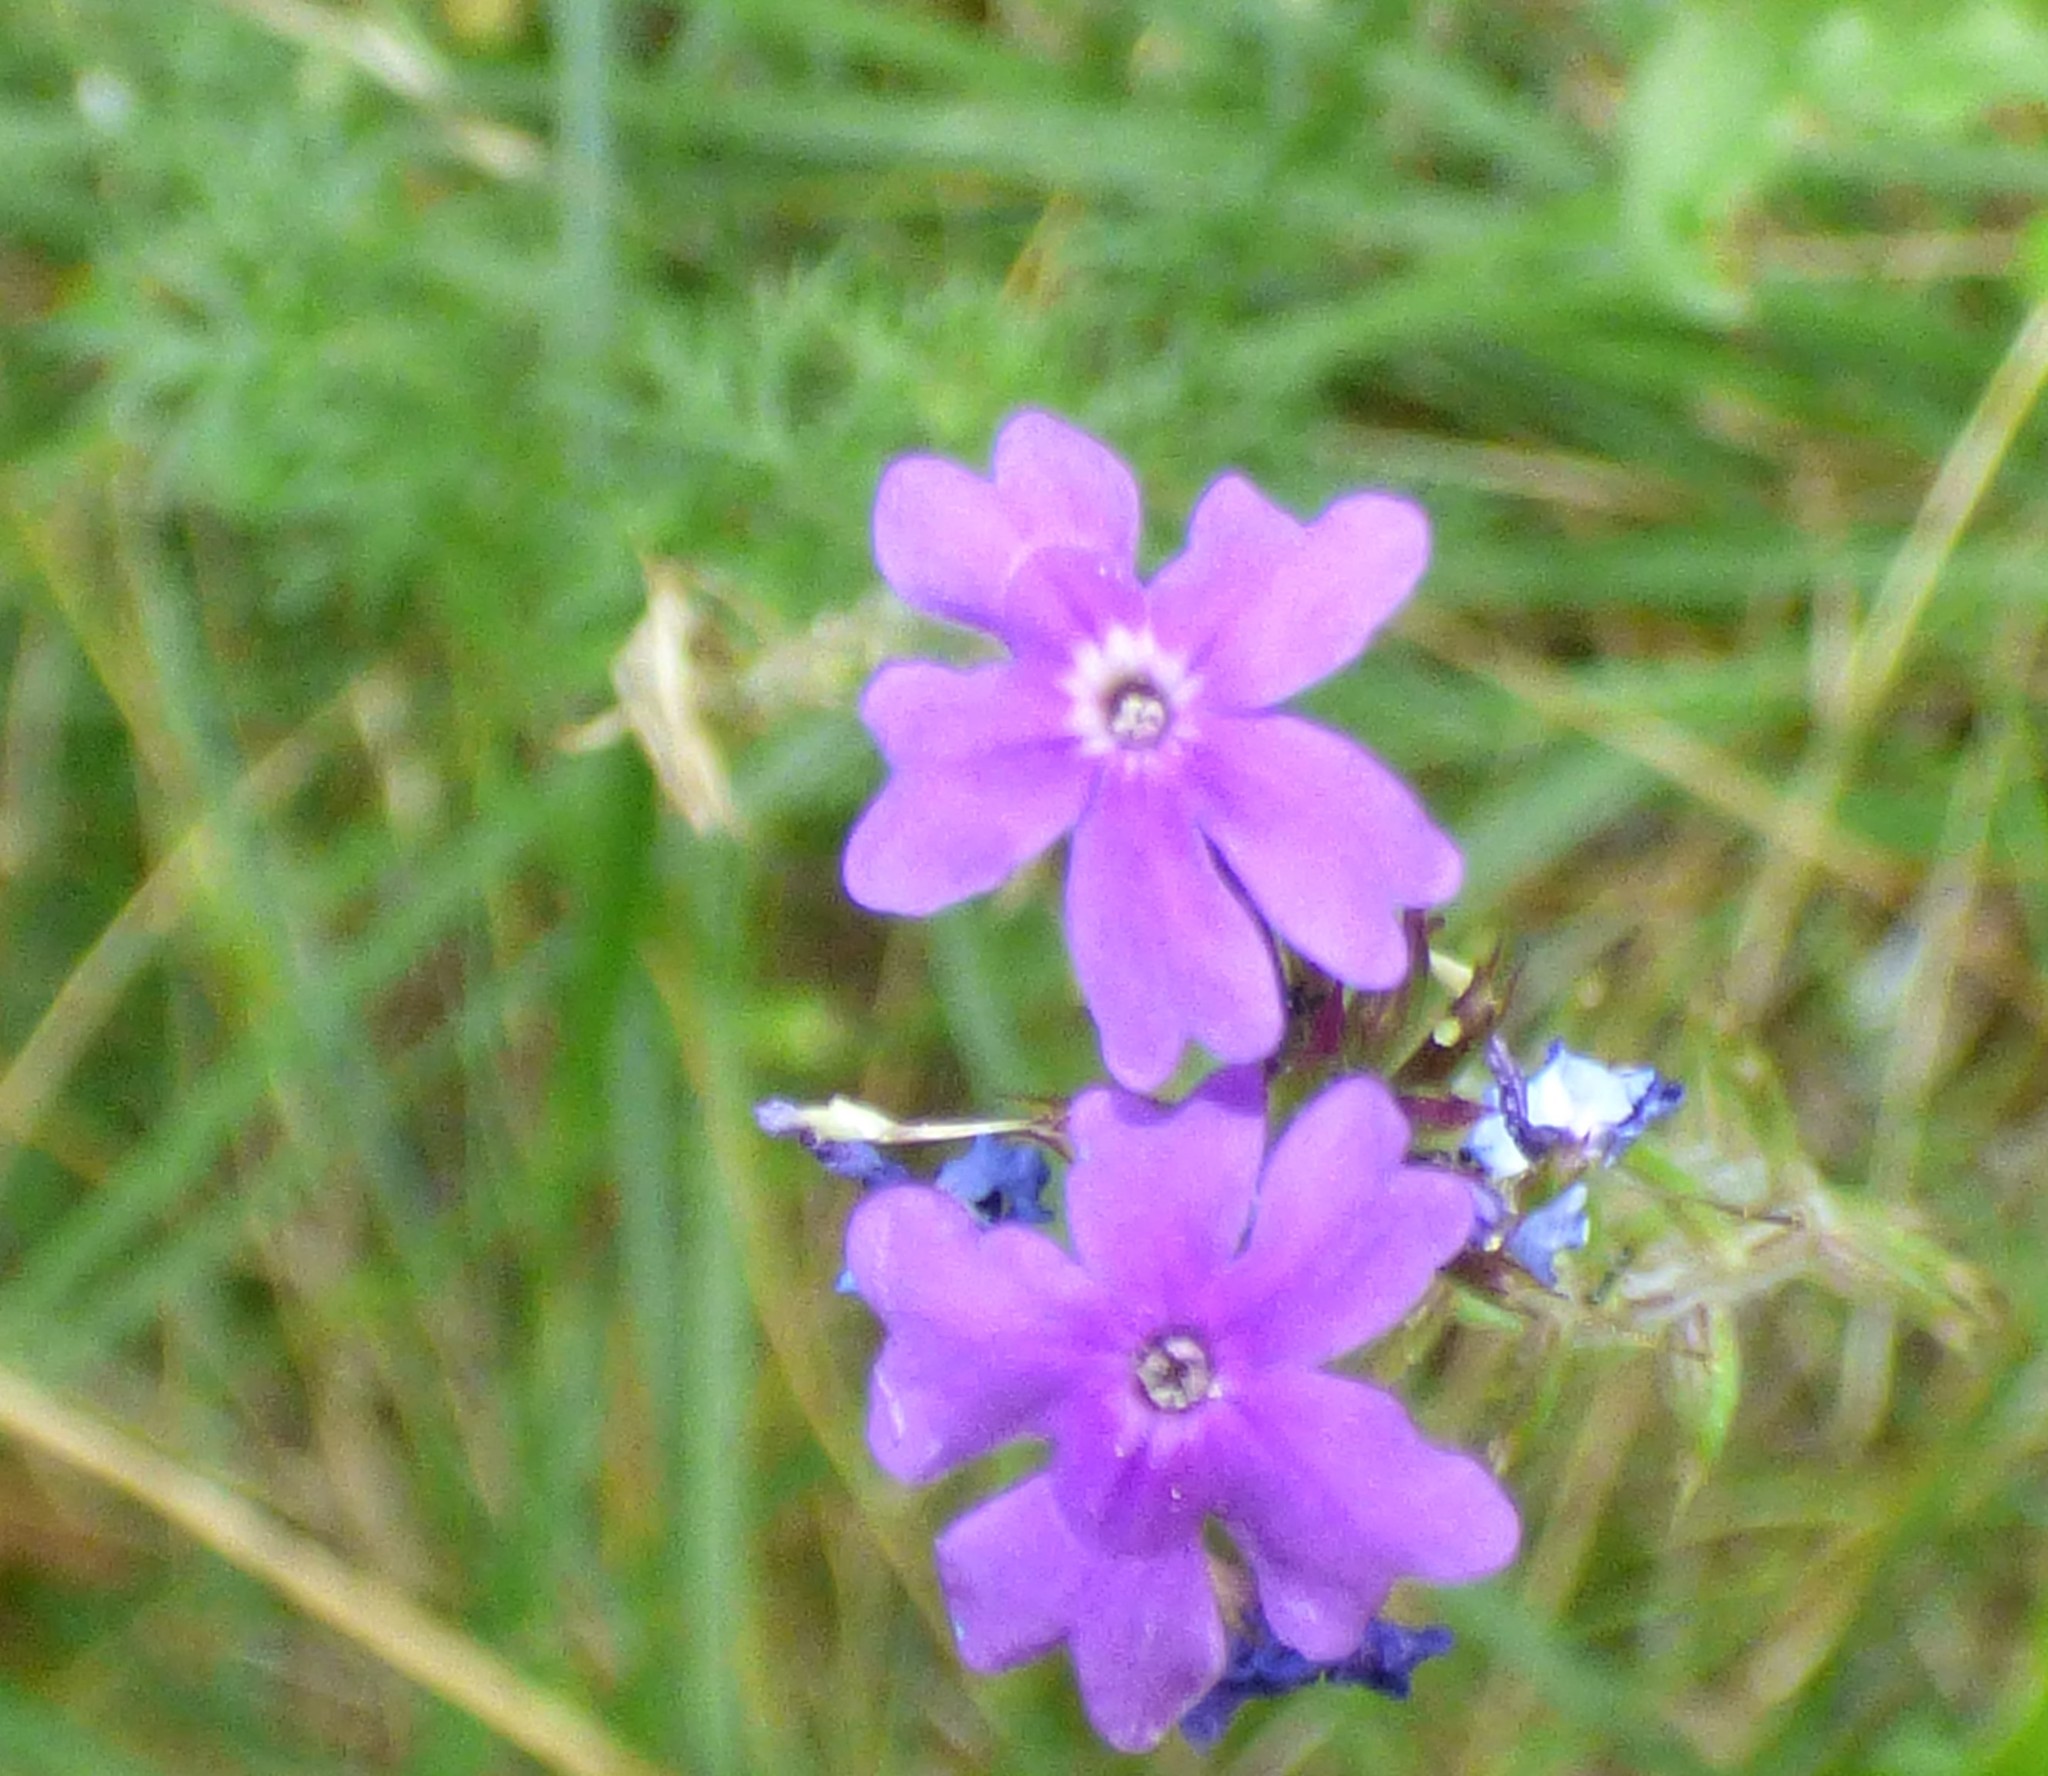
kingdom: Plantae
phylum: Tracheophyta
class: Magnoliopsida
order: Lamiales
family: Verbenaceae
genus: Verbena
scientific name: Verbena aristigera
